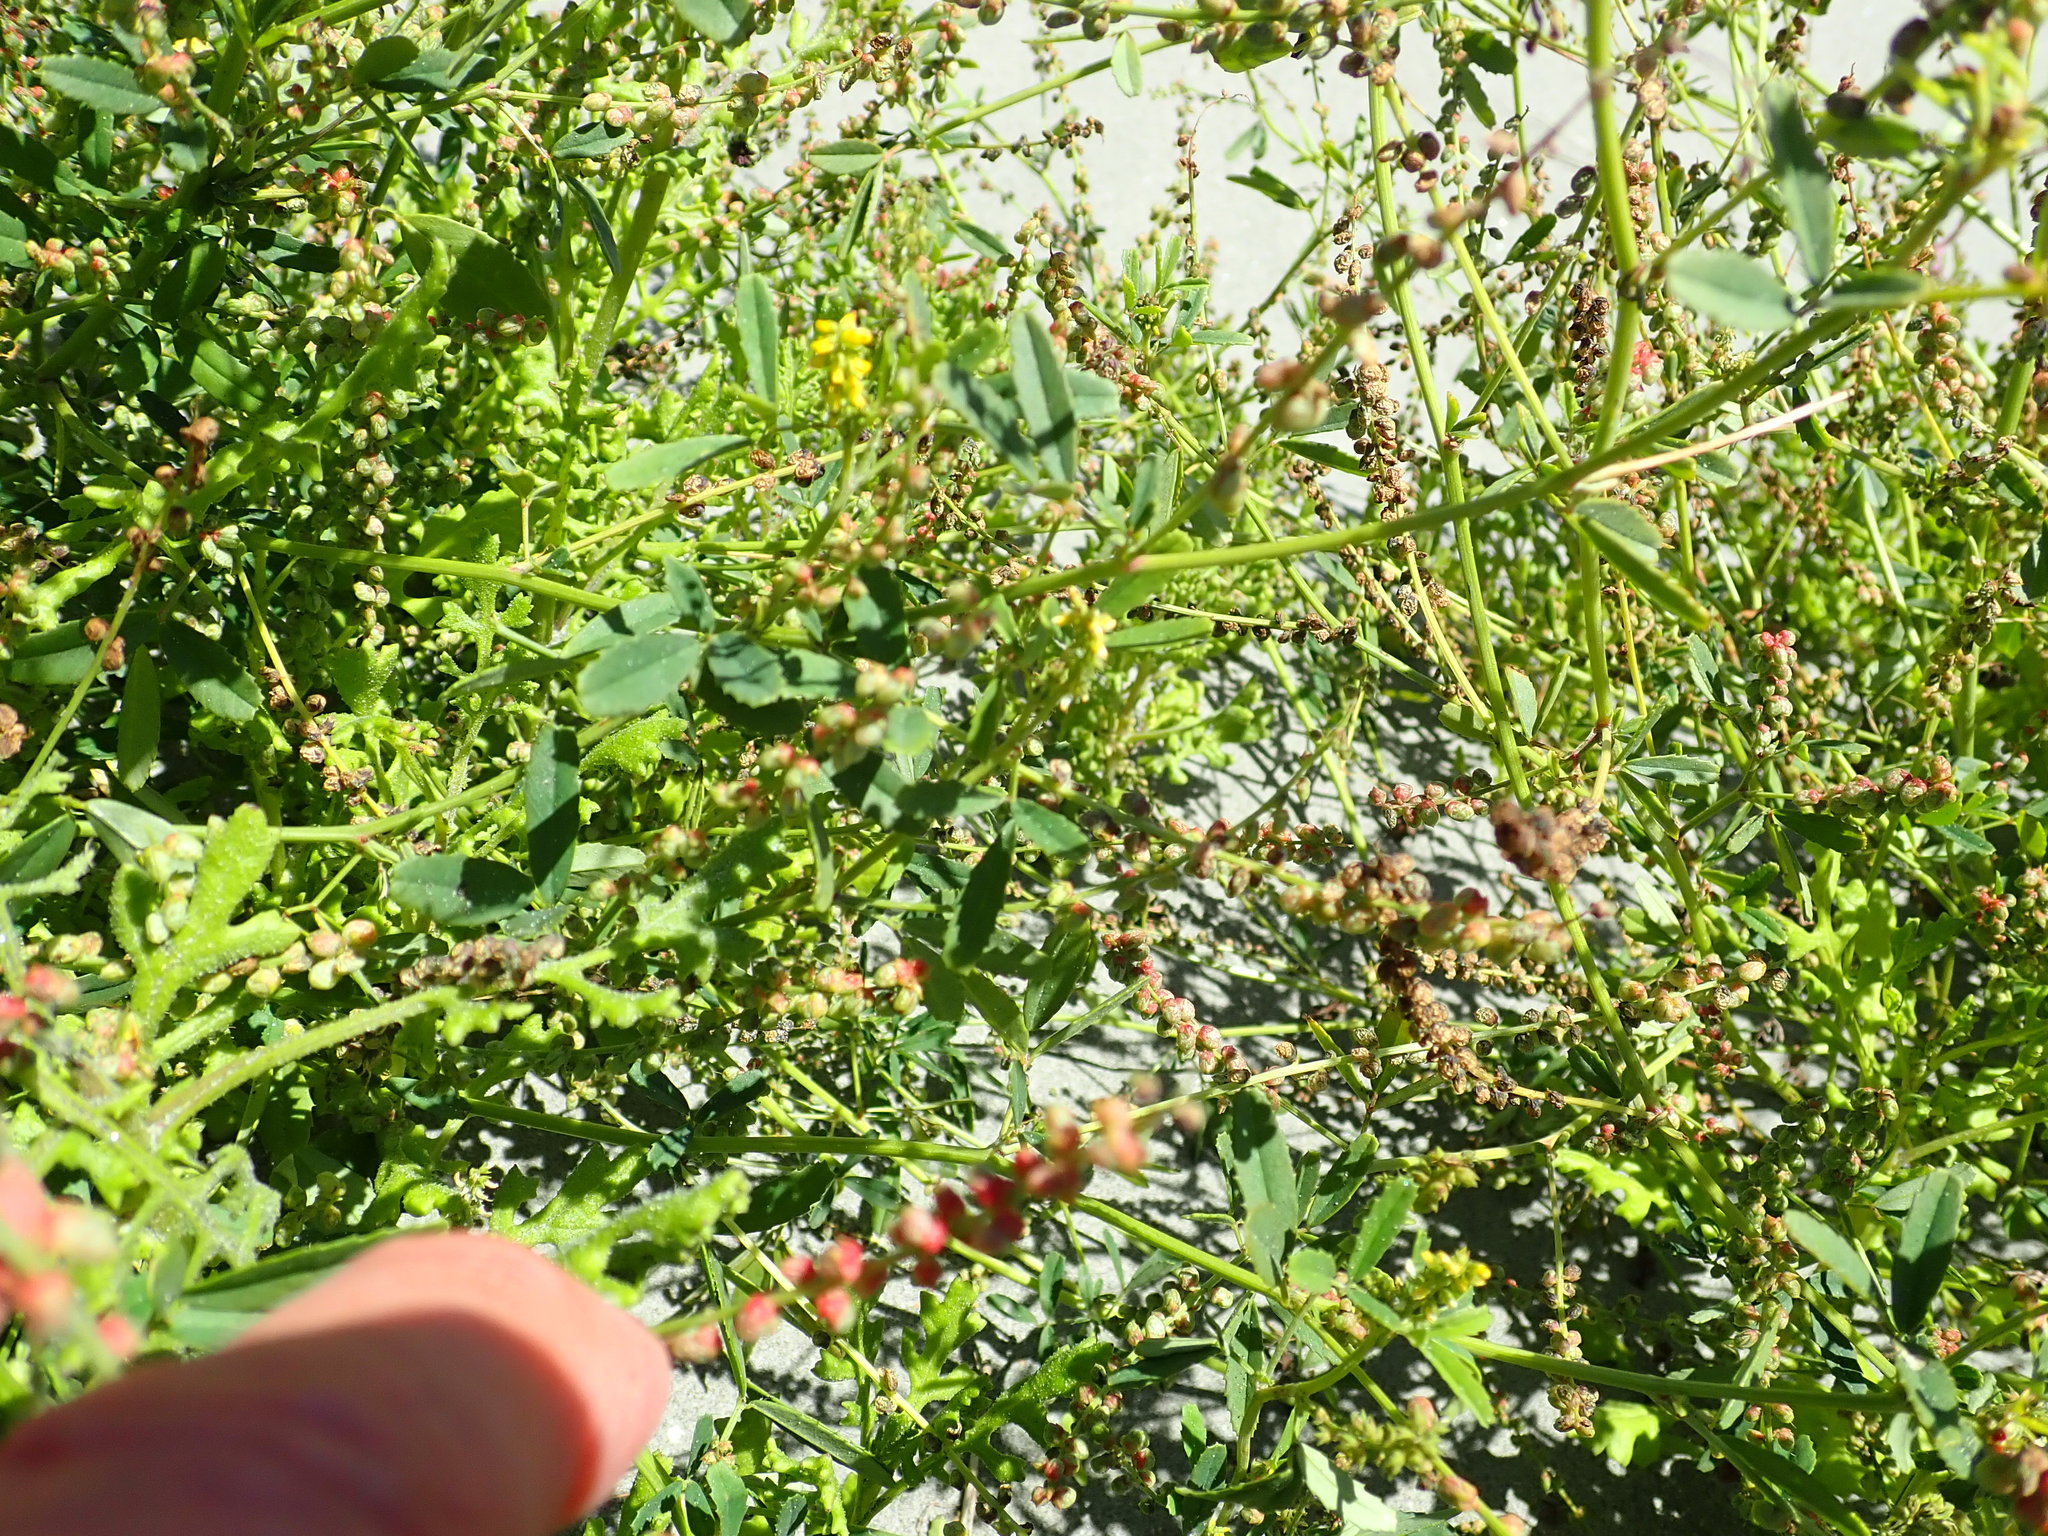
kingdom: Plantae
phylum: Tracheophyta
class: Magnoliopsida
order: Fabales
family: Fabaceae
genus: Melilotus
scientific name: Melilotus indicus
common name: Small melilot
